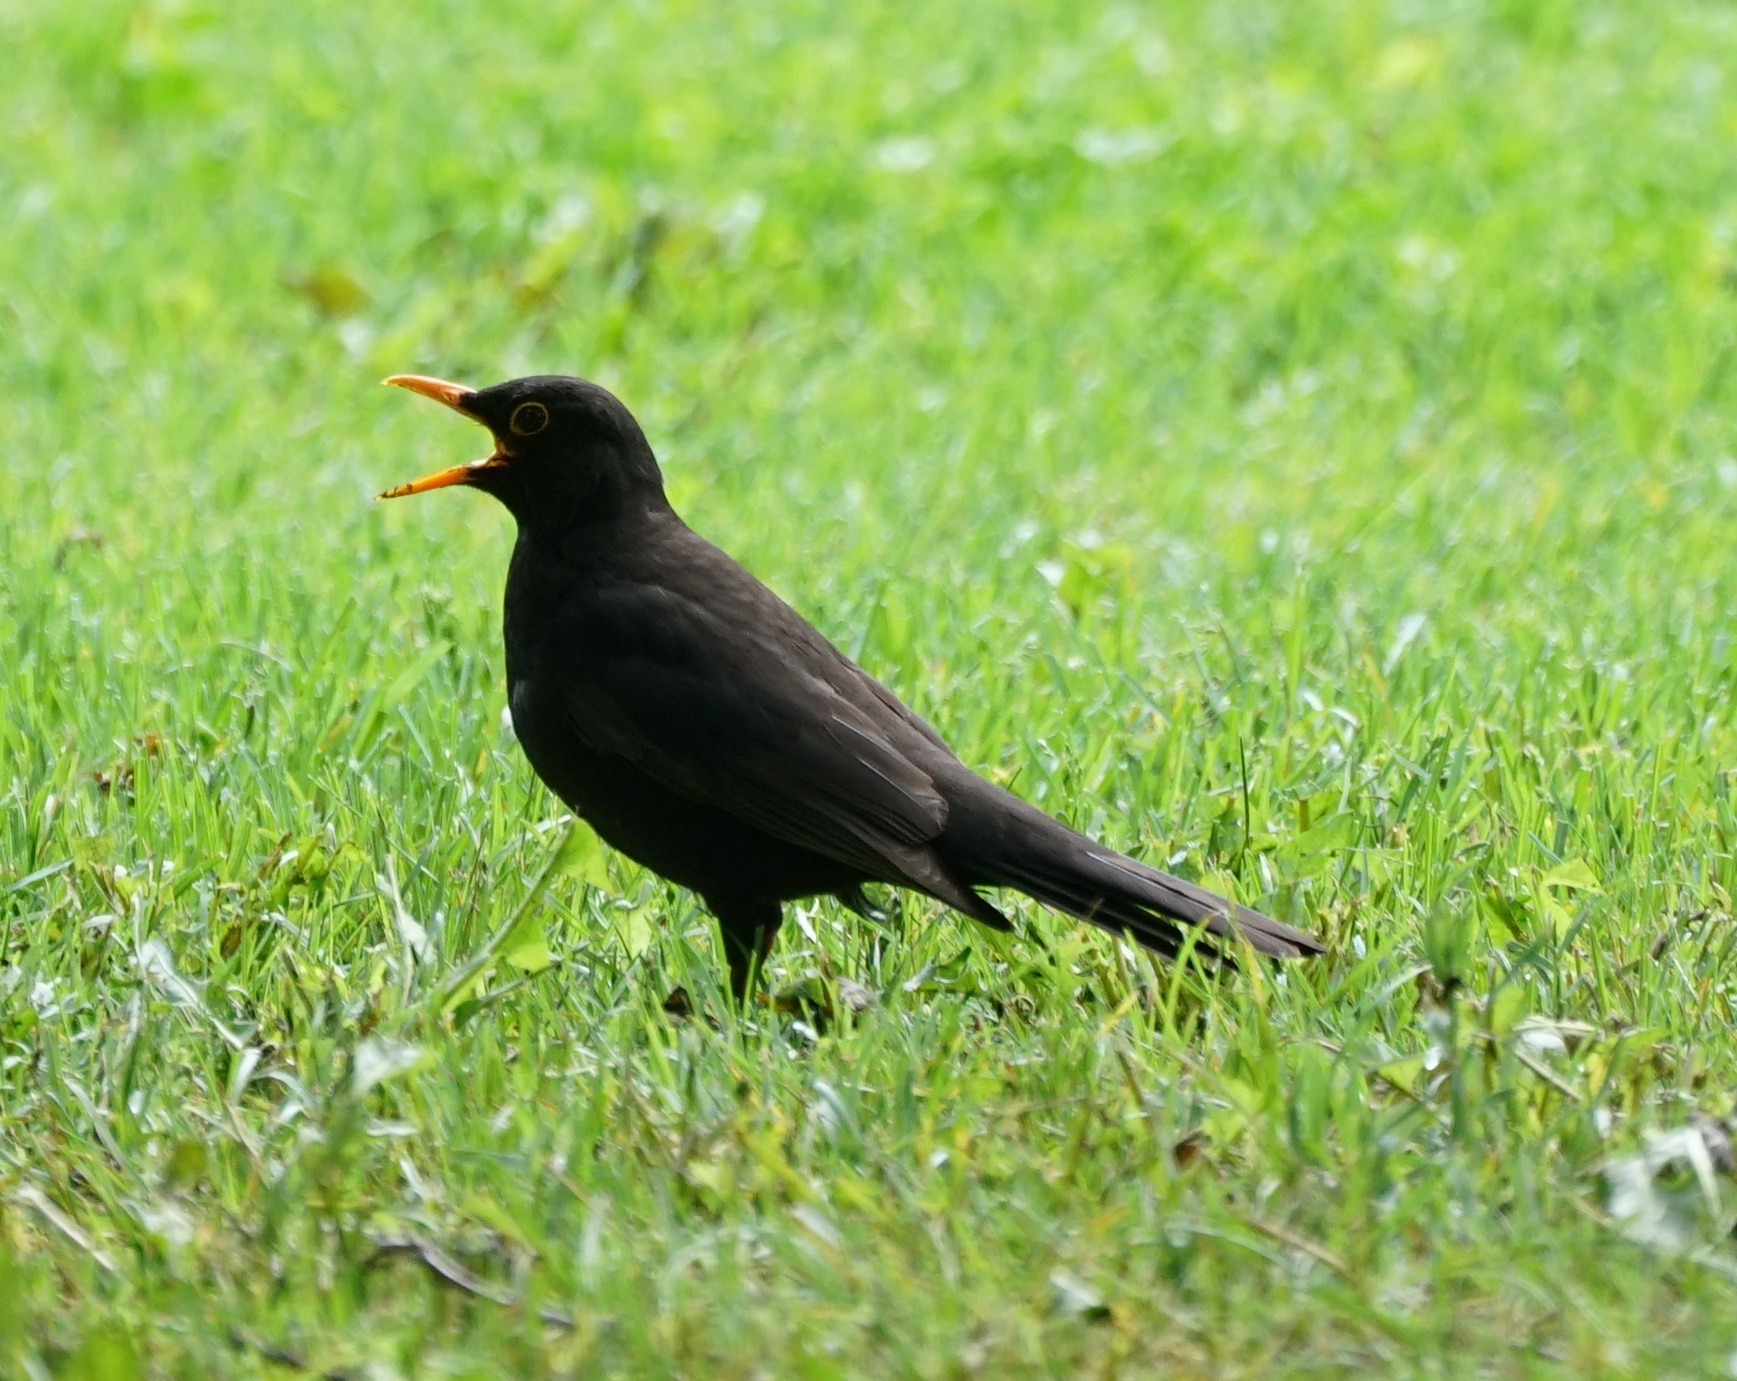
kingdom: Animalia
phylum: Chordata
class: Aves
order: Passeriformes
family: Turdidae
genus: Turdus
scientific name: Turdus merula
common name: Common blackbird
